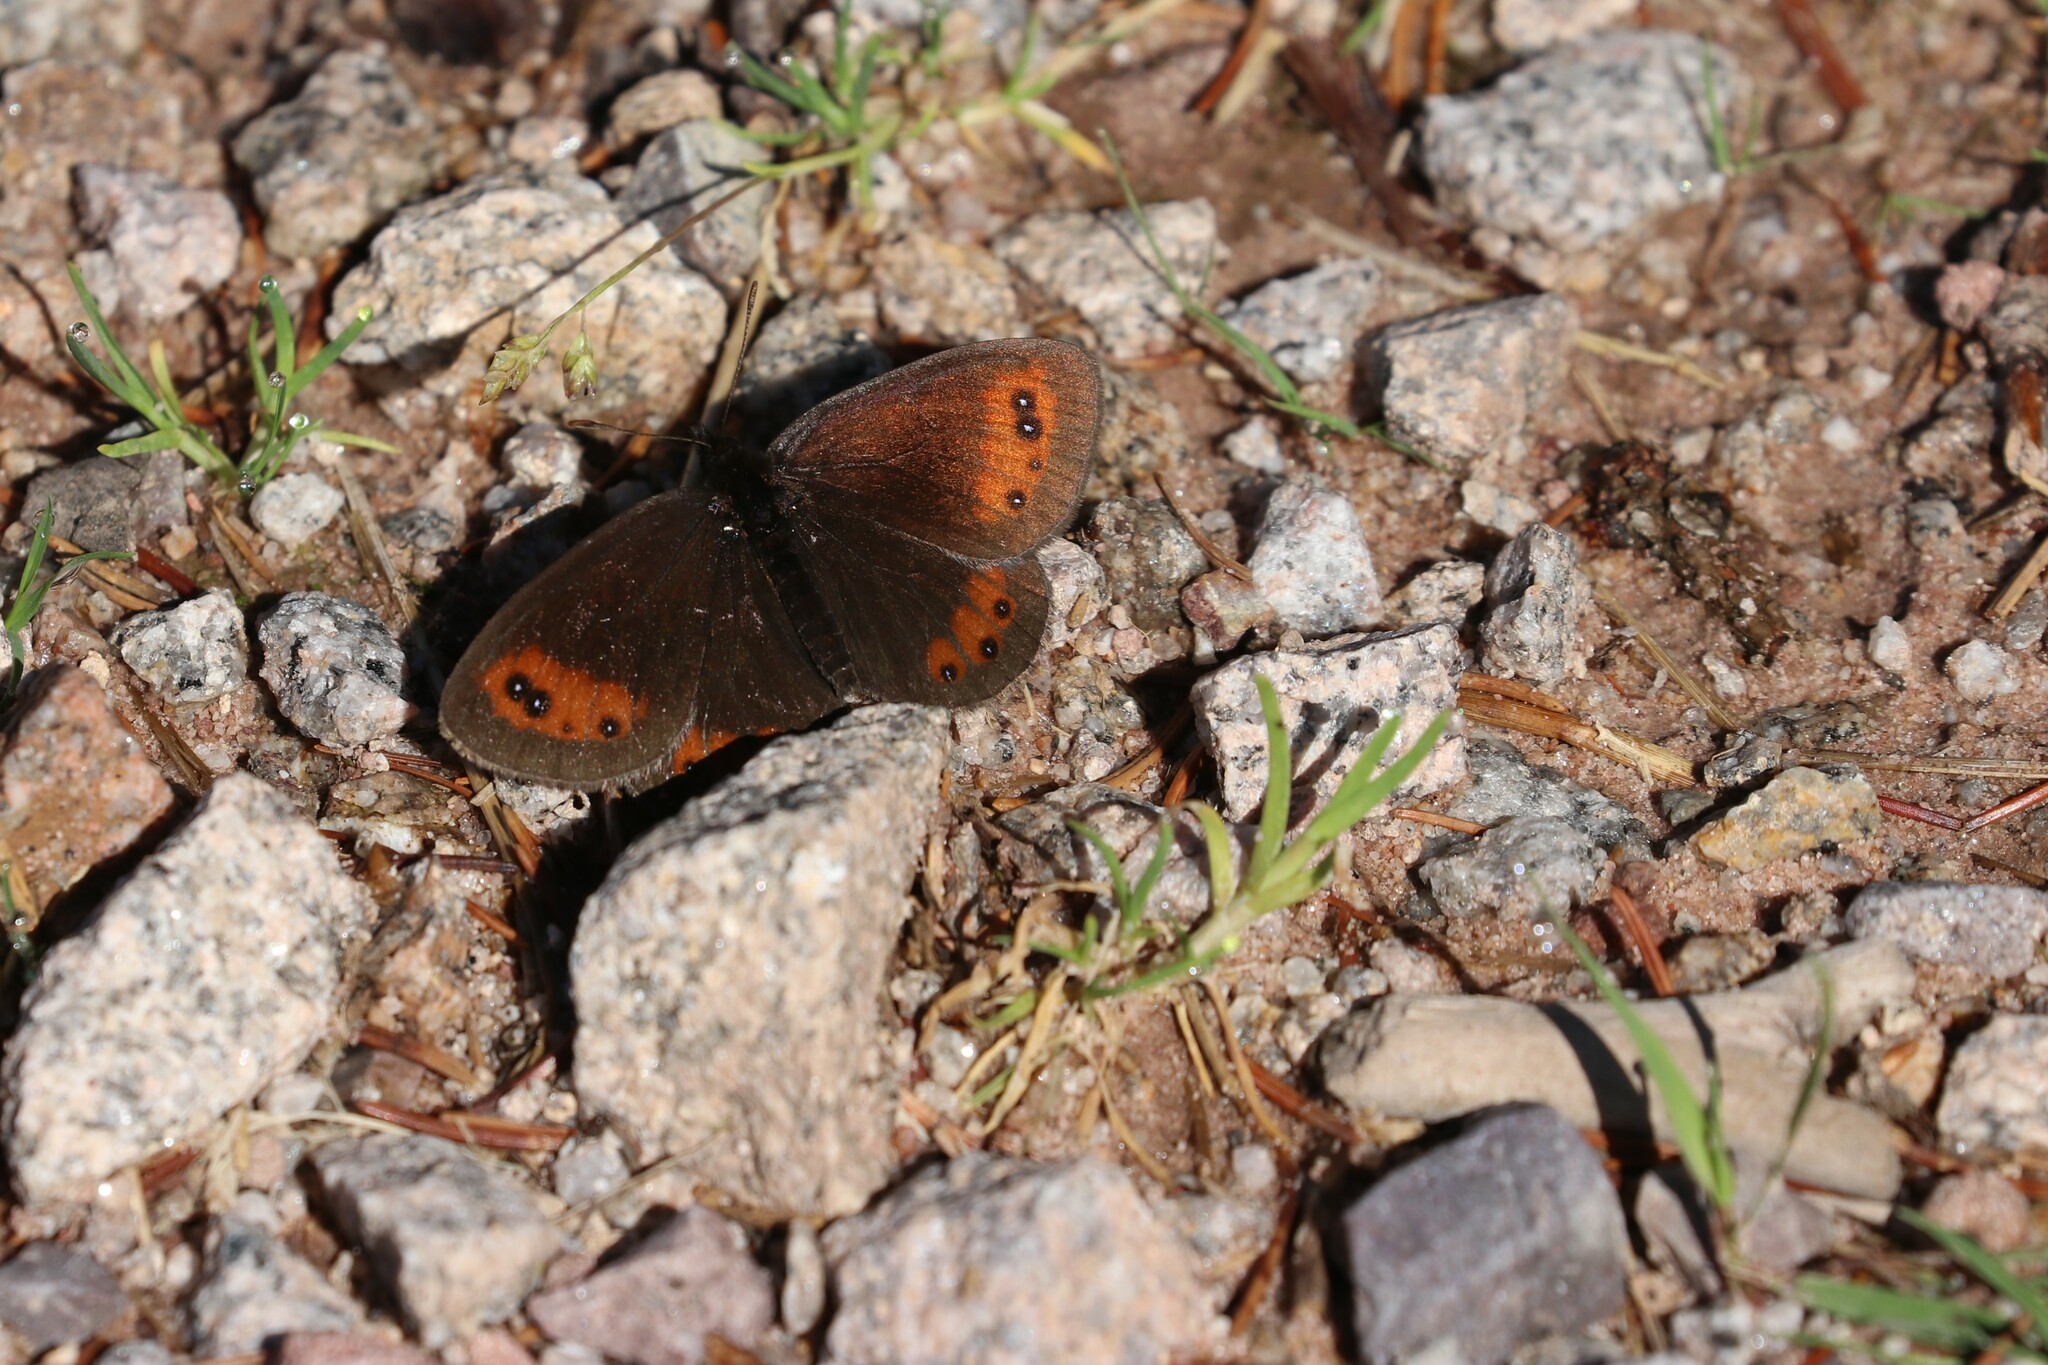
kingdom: Animalia
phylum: Arthropoda
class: Insecta
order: Lepidoptera
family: Nymphalidae
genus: Erebia
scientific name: Erebia meolans
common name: Piedmont ringlet
